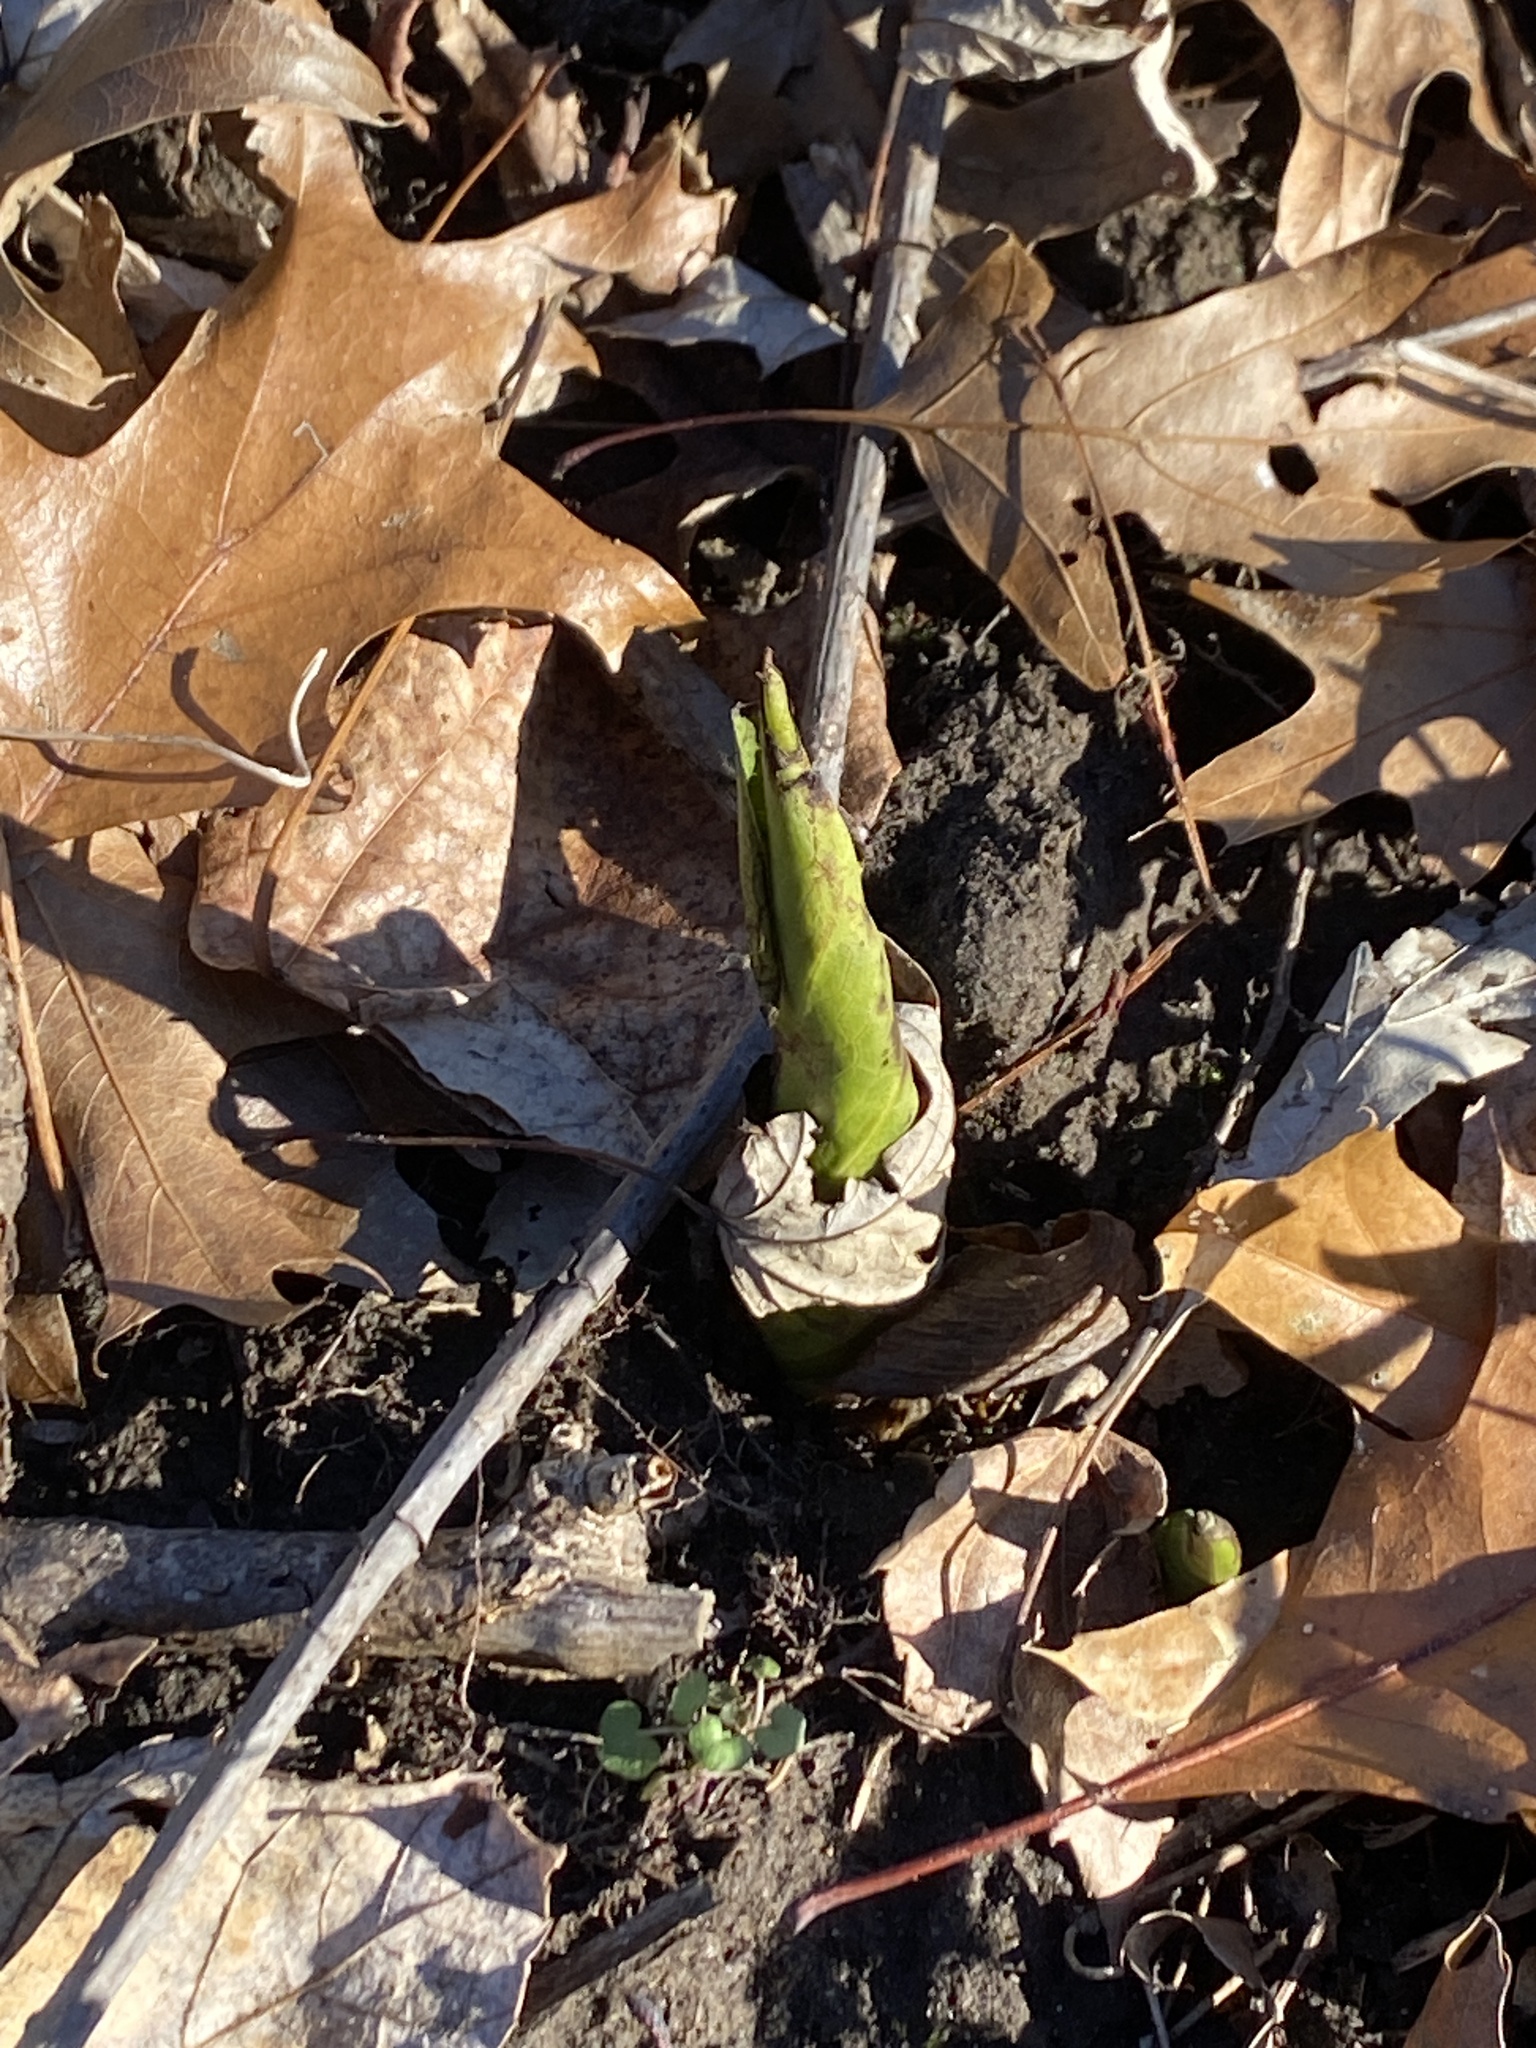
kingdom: Plantae
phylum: Tracheophyta
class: Liliopsida
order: Alismatales
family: Araceae
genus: Symplocarpus
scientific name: Symplocarpus foetidus
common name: Eastern skunk cabbage
